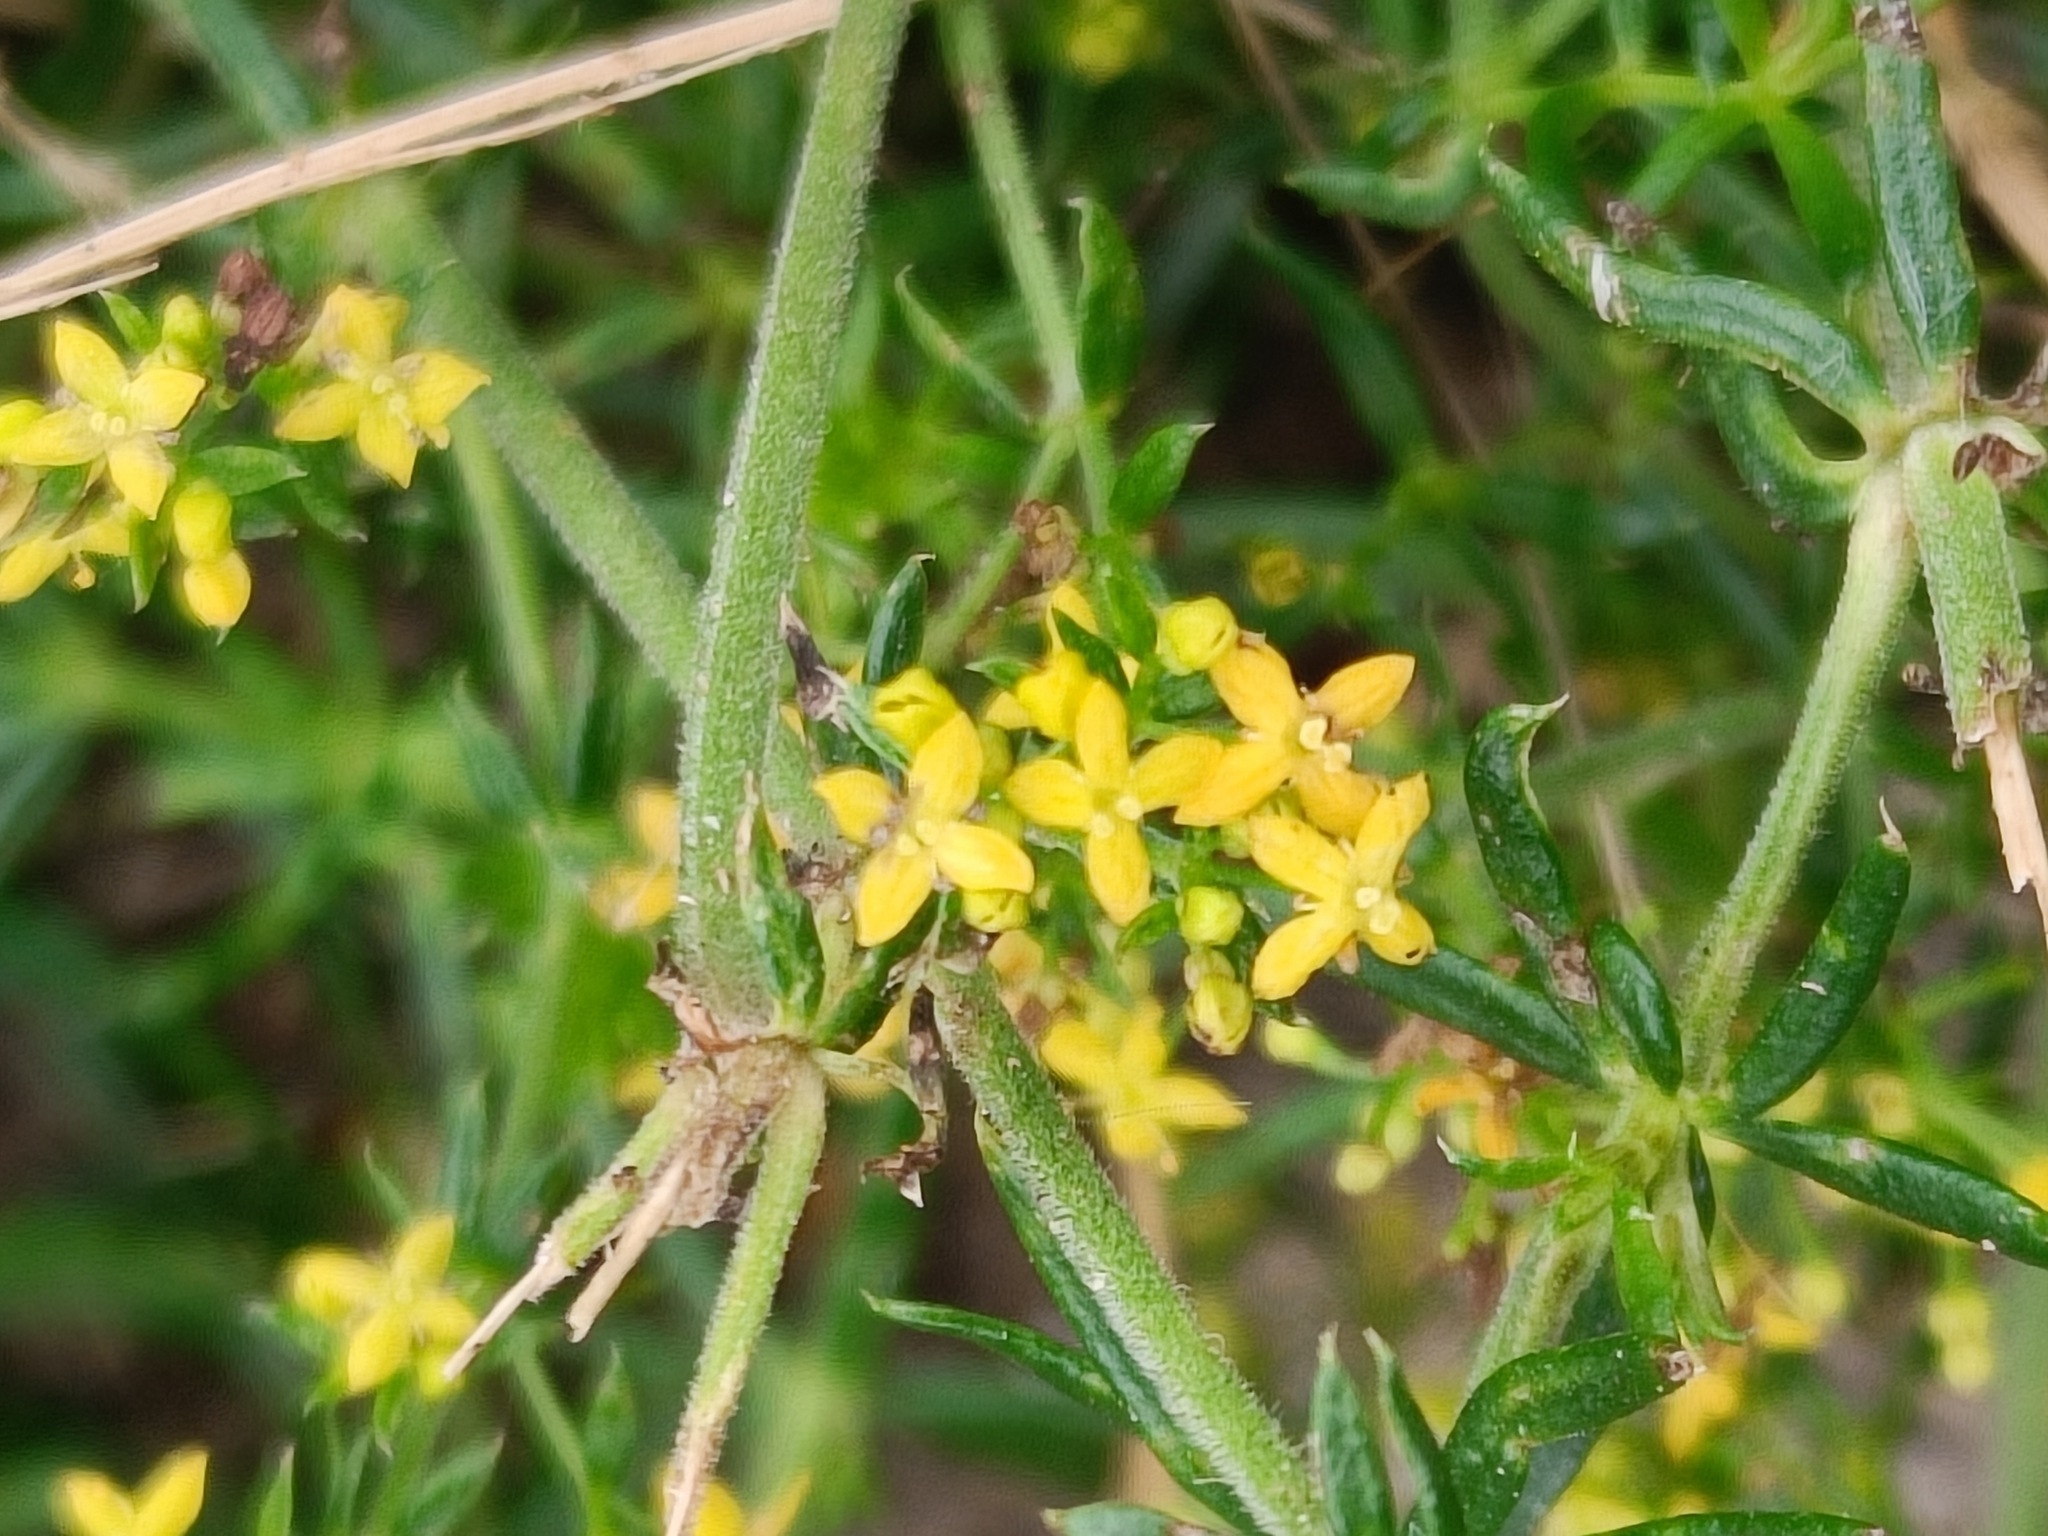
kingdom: Plantae
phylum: Tracheophyta
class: Magnoliopsida
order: Gentianales
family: Rubiaceae
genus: Galium
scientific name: Galium verum
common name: Lady's bedstraw
